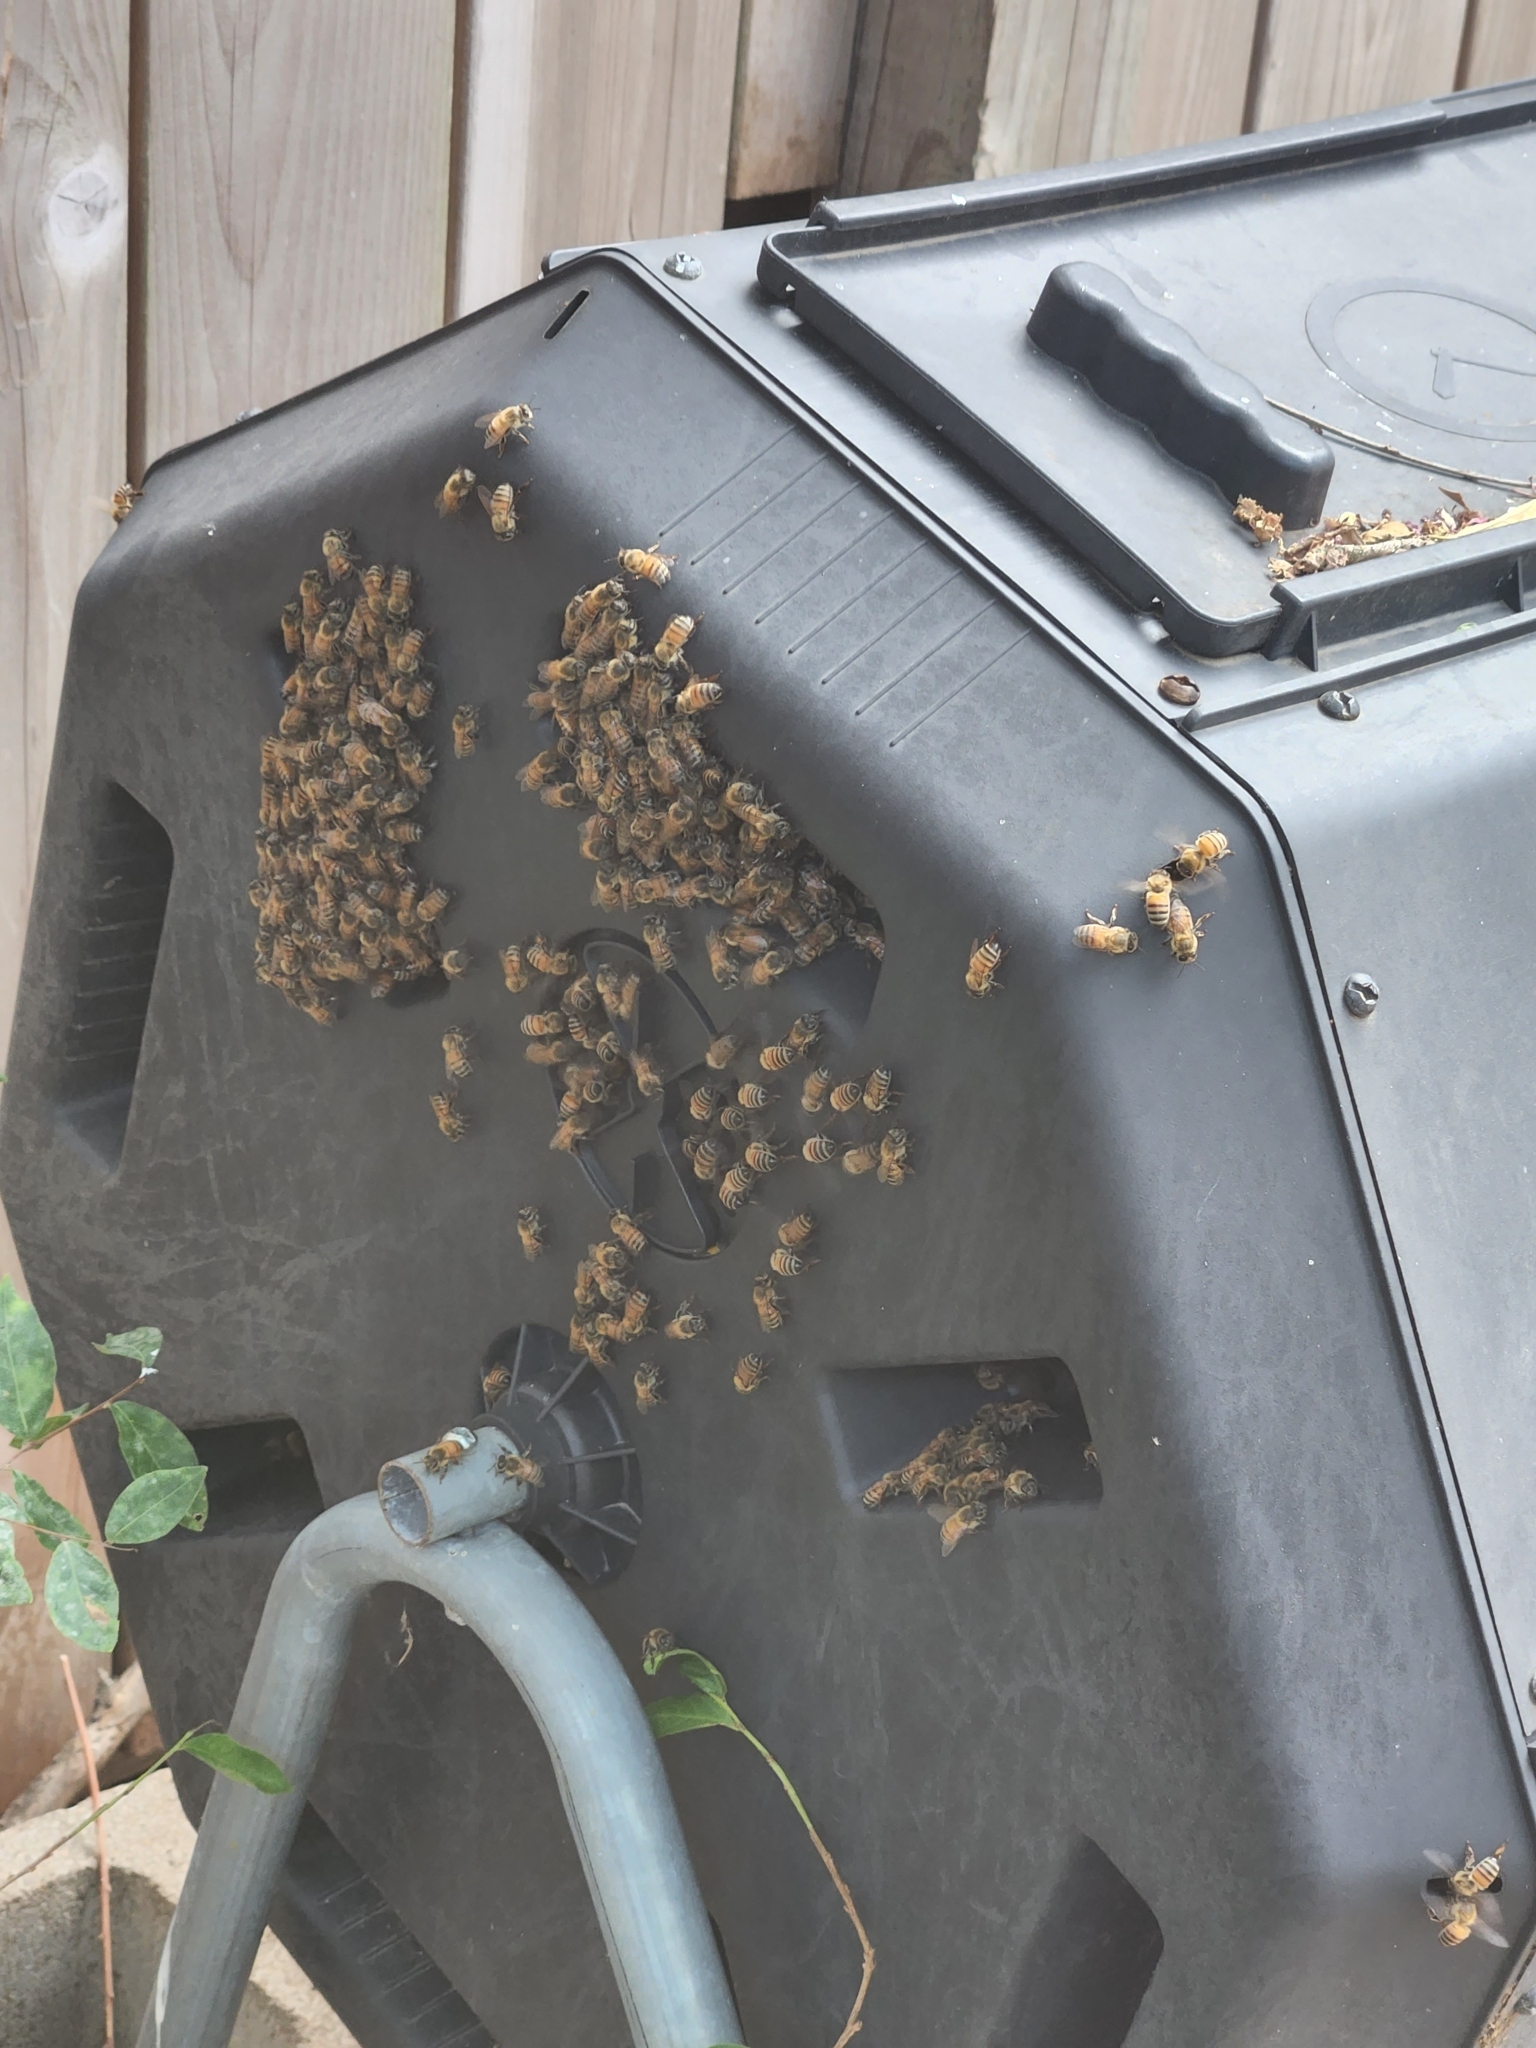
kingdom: Animalia
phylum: Arthropoda
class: Insecta
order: Hymenoptera
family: Apidae
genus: Apis
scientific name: Apis mellifera
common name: Honey bee
